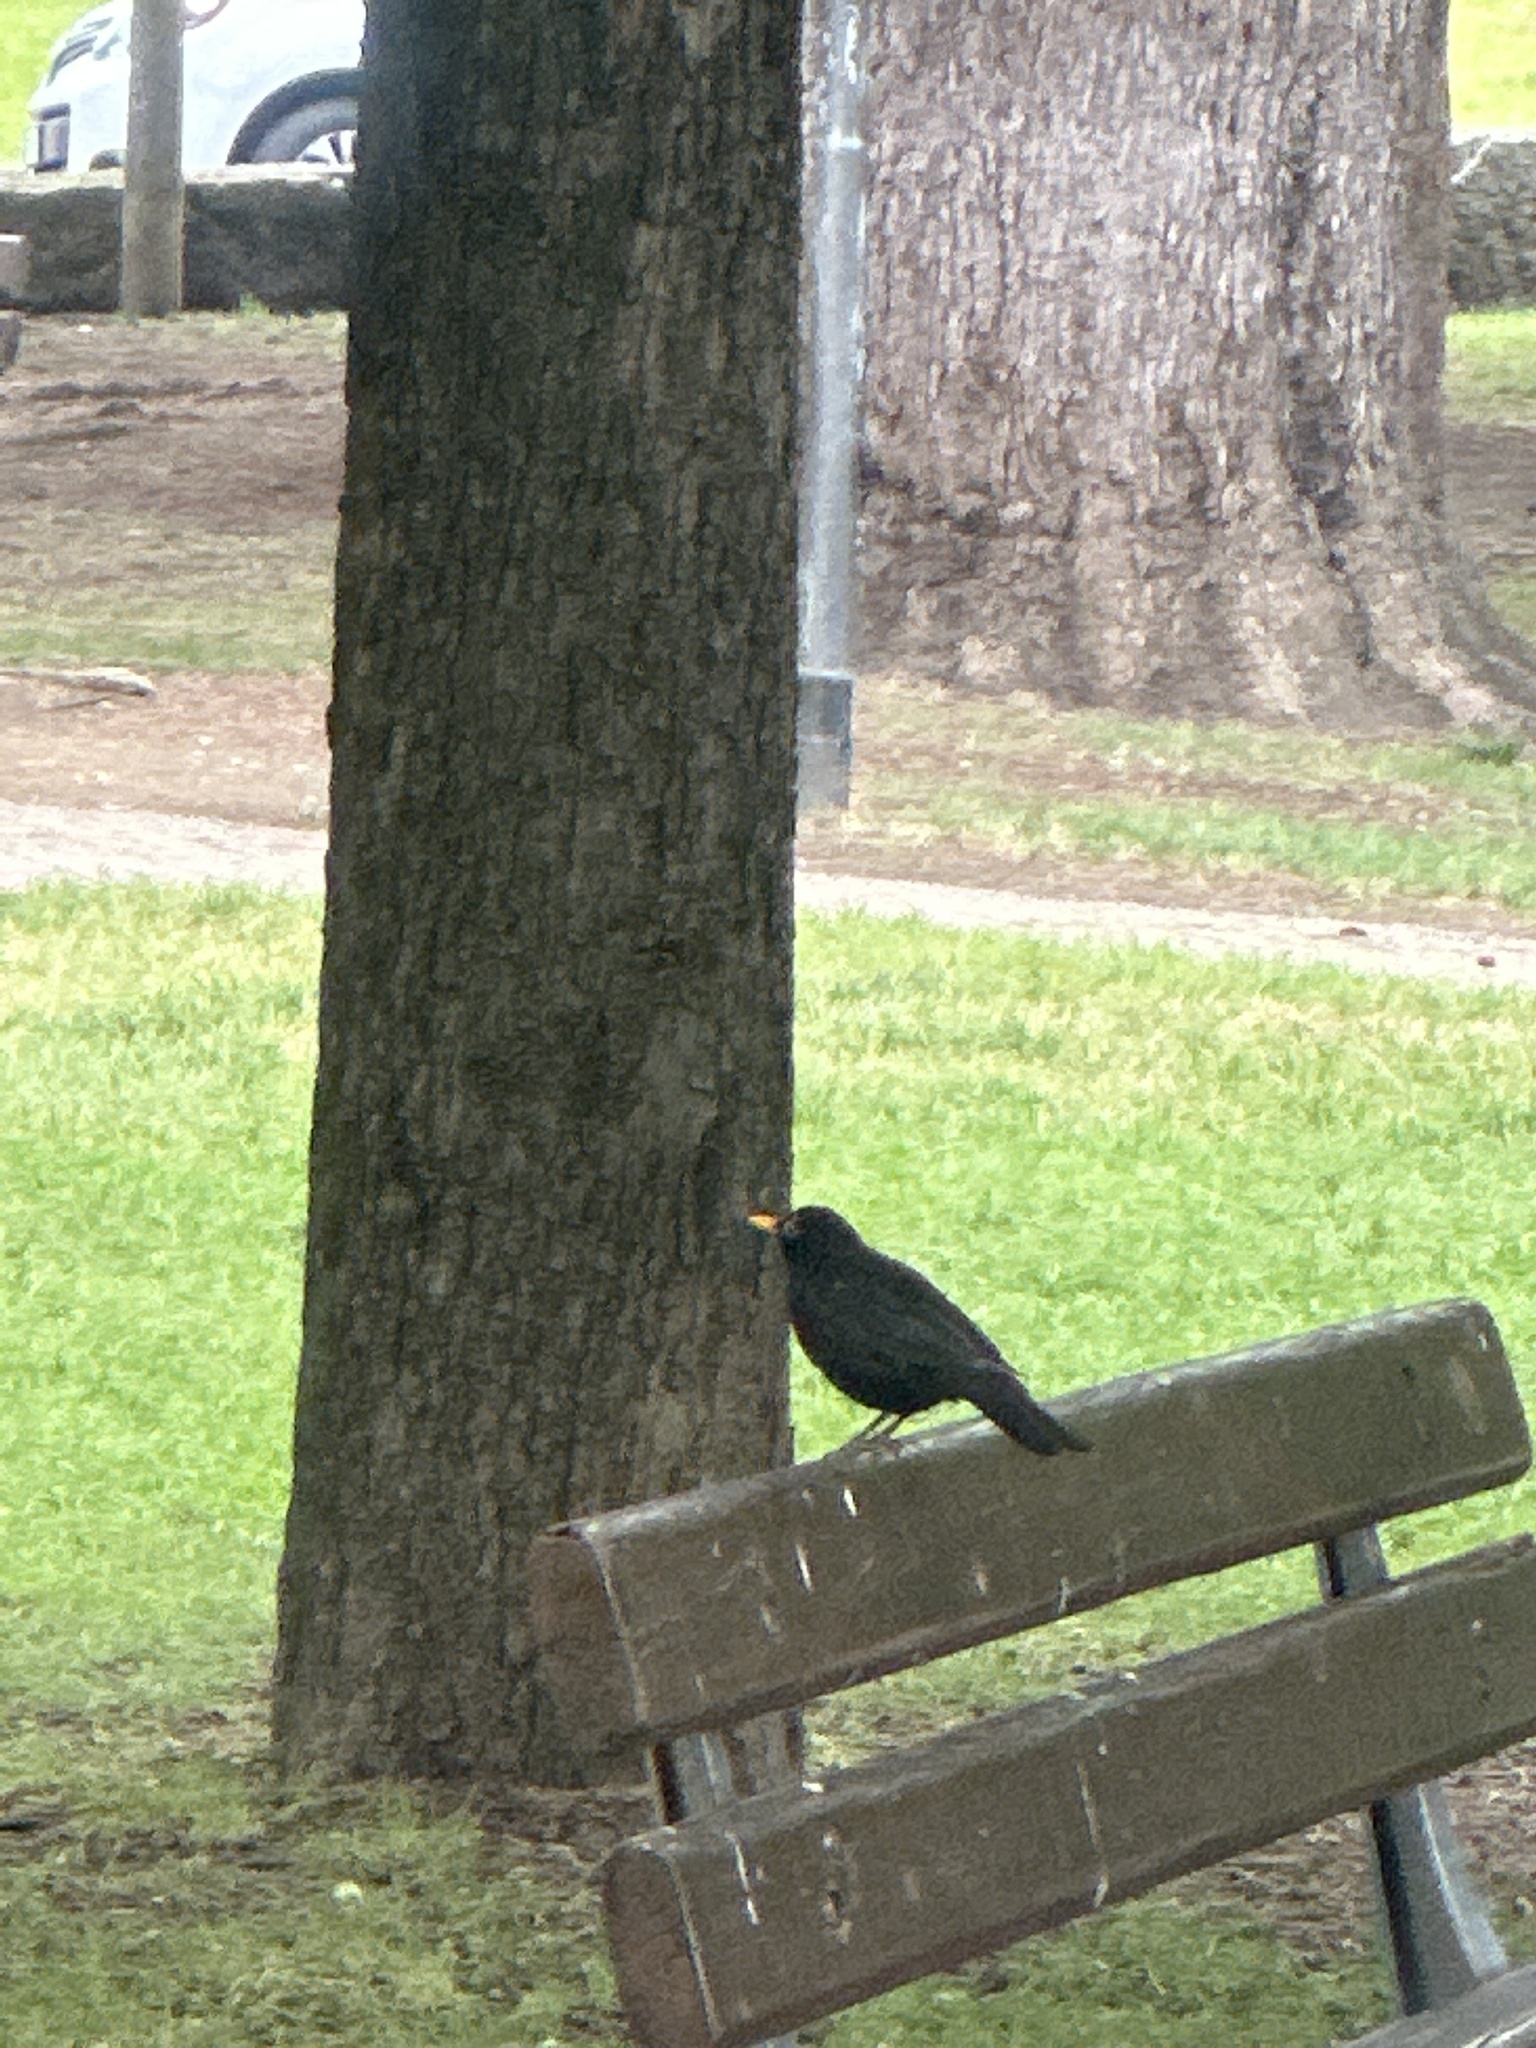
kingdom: Animalia
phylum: Chordata
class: Aves
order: Passeriformes
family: Turdidae
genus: Turdus
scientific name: Turdus merula
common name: Common blackbird
